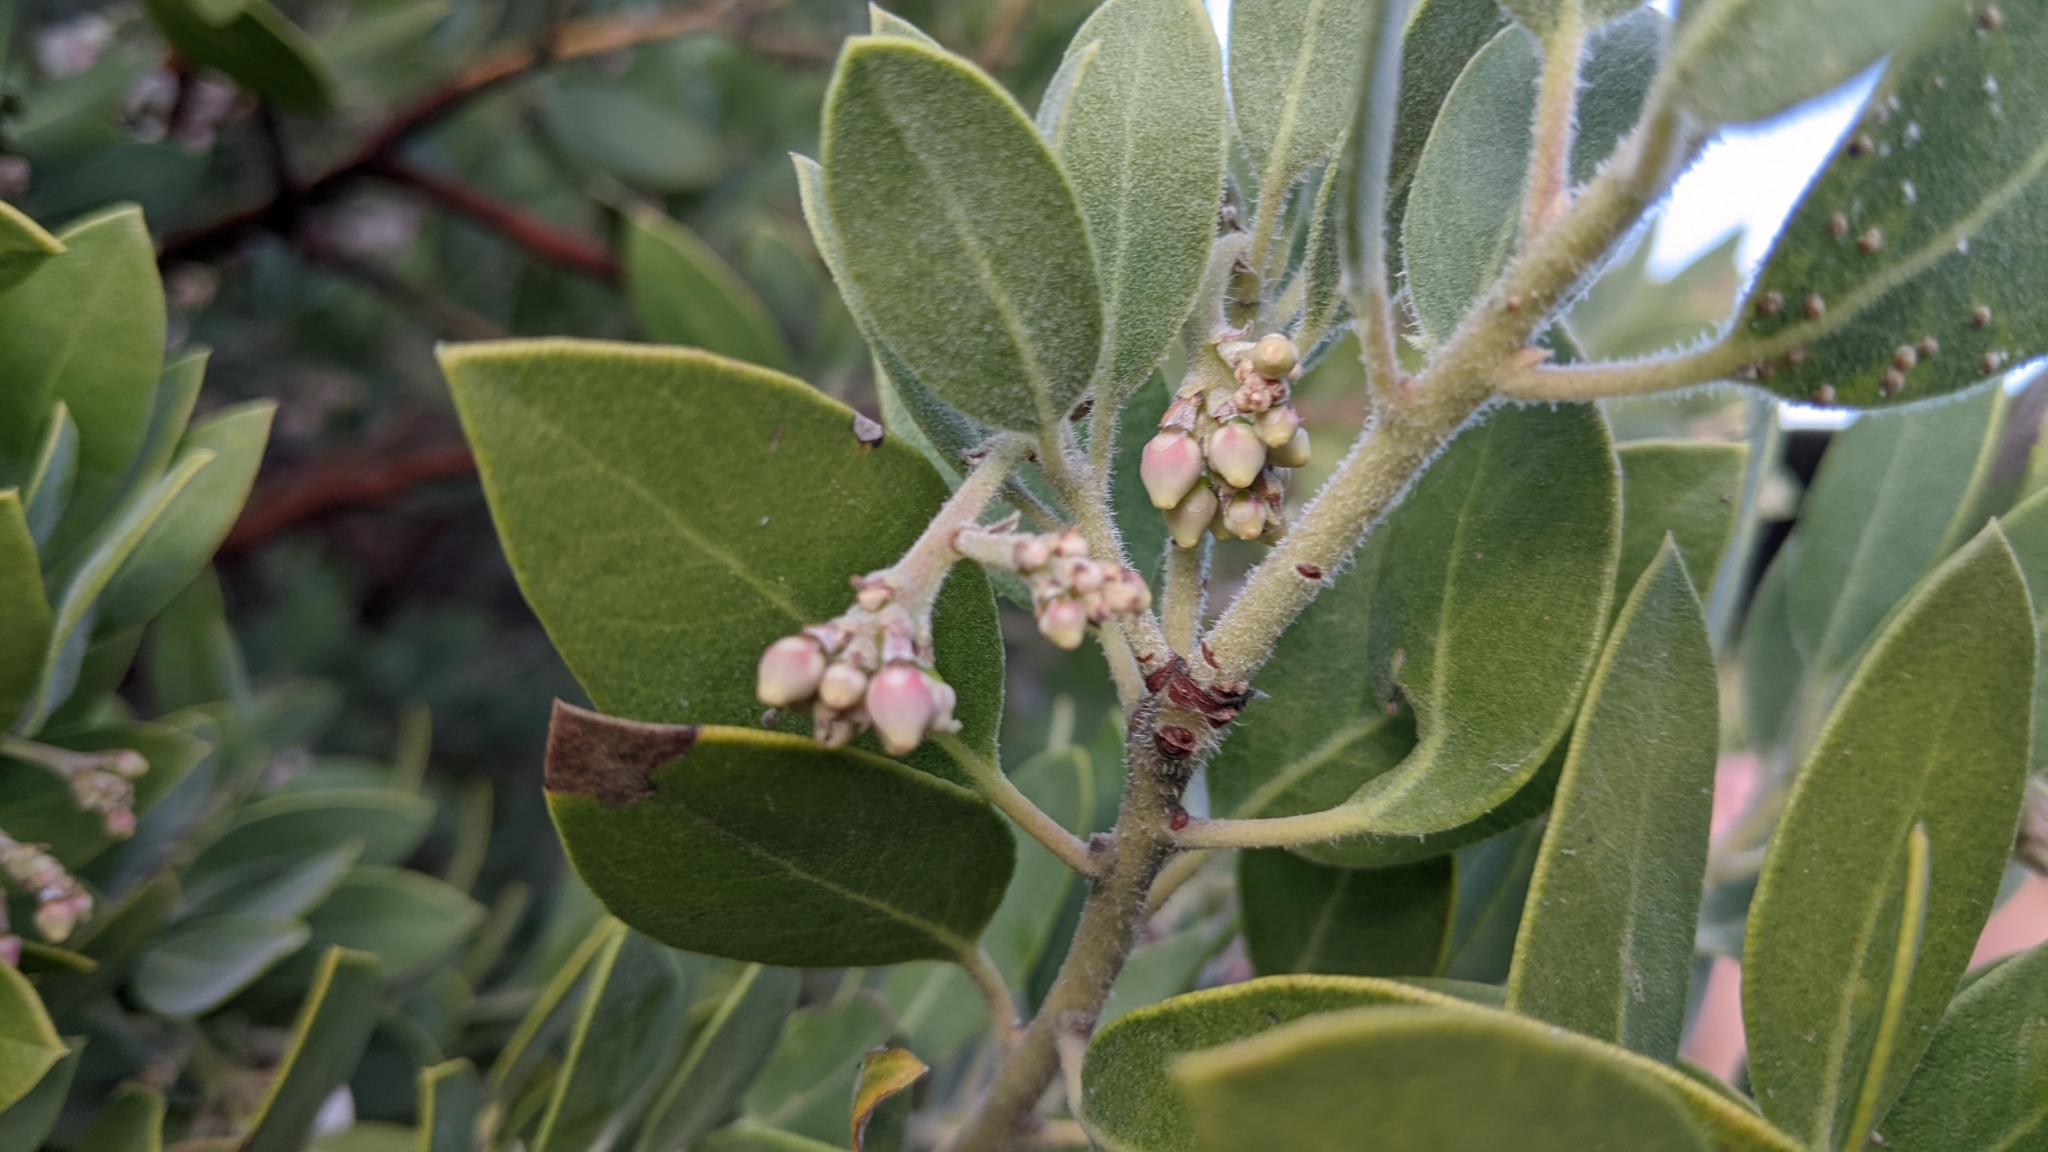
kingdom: Plantae
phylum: Tracheophyta
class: Magnoliopsida
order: Ericales
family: Ericaceae
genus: Arctostaphylos
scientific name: Arctostaphylos glandulosa
